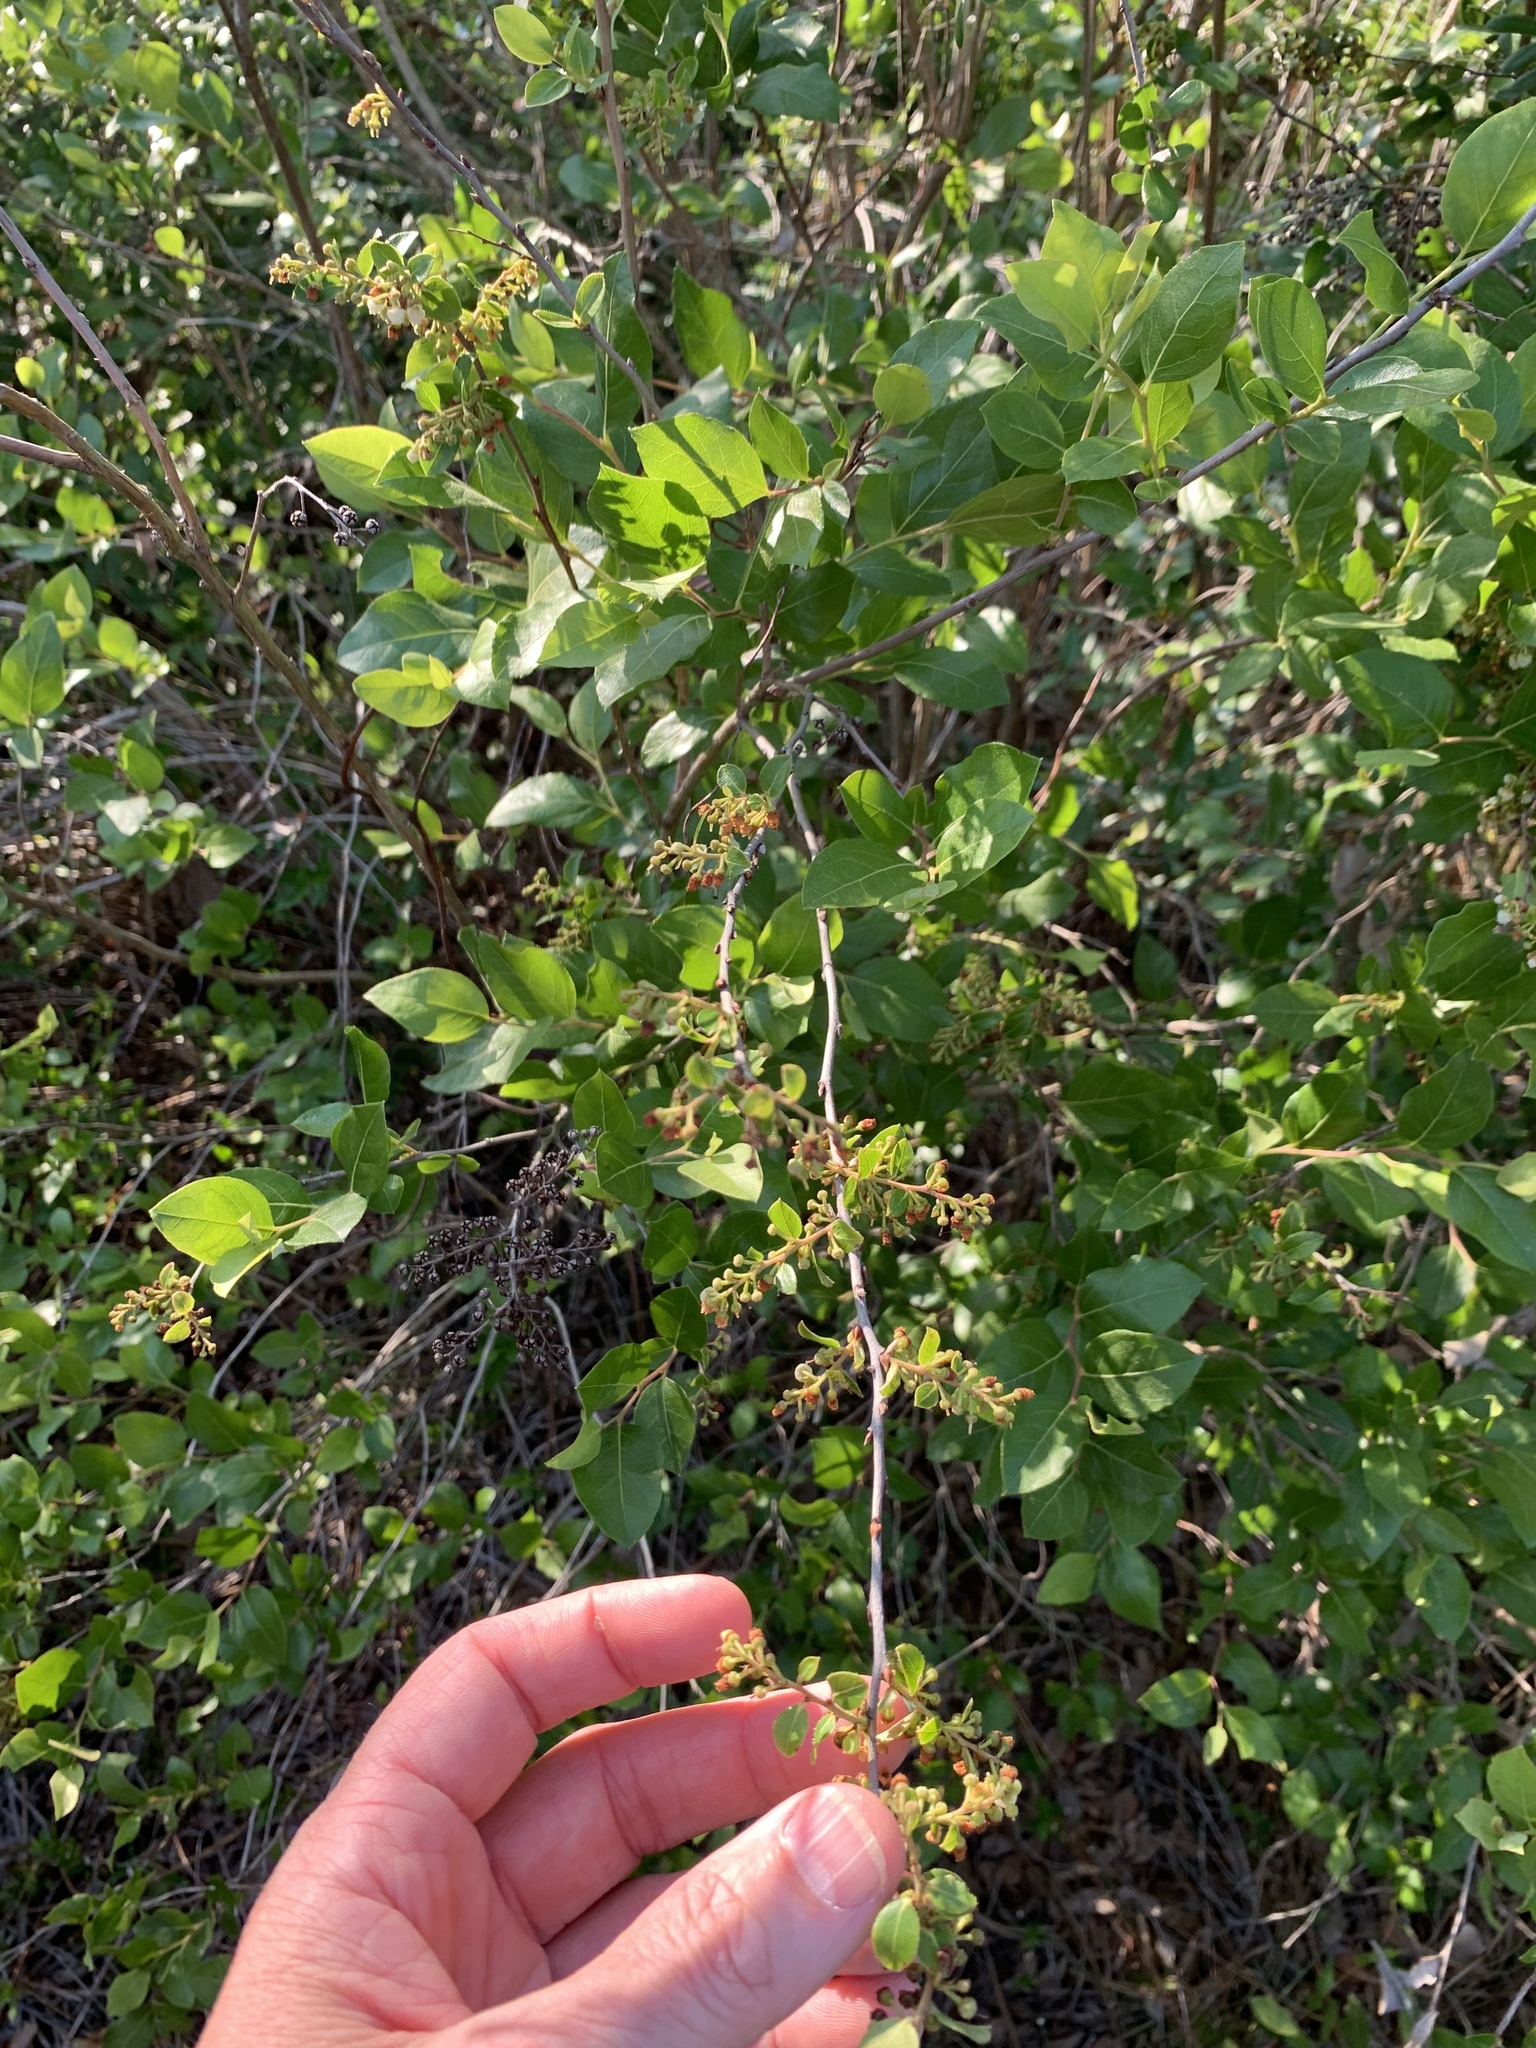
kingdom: Plantae
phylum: Tracheophyta
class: Magnoliopsida
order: Ericales
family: Ericaceae
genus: Lyonia
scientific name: Lyonia ligustrina
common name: Maleberry
